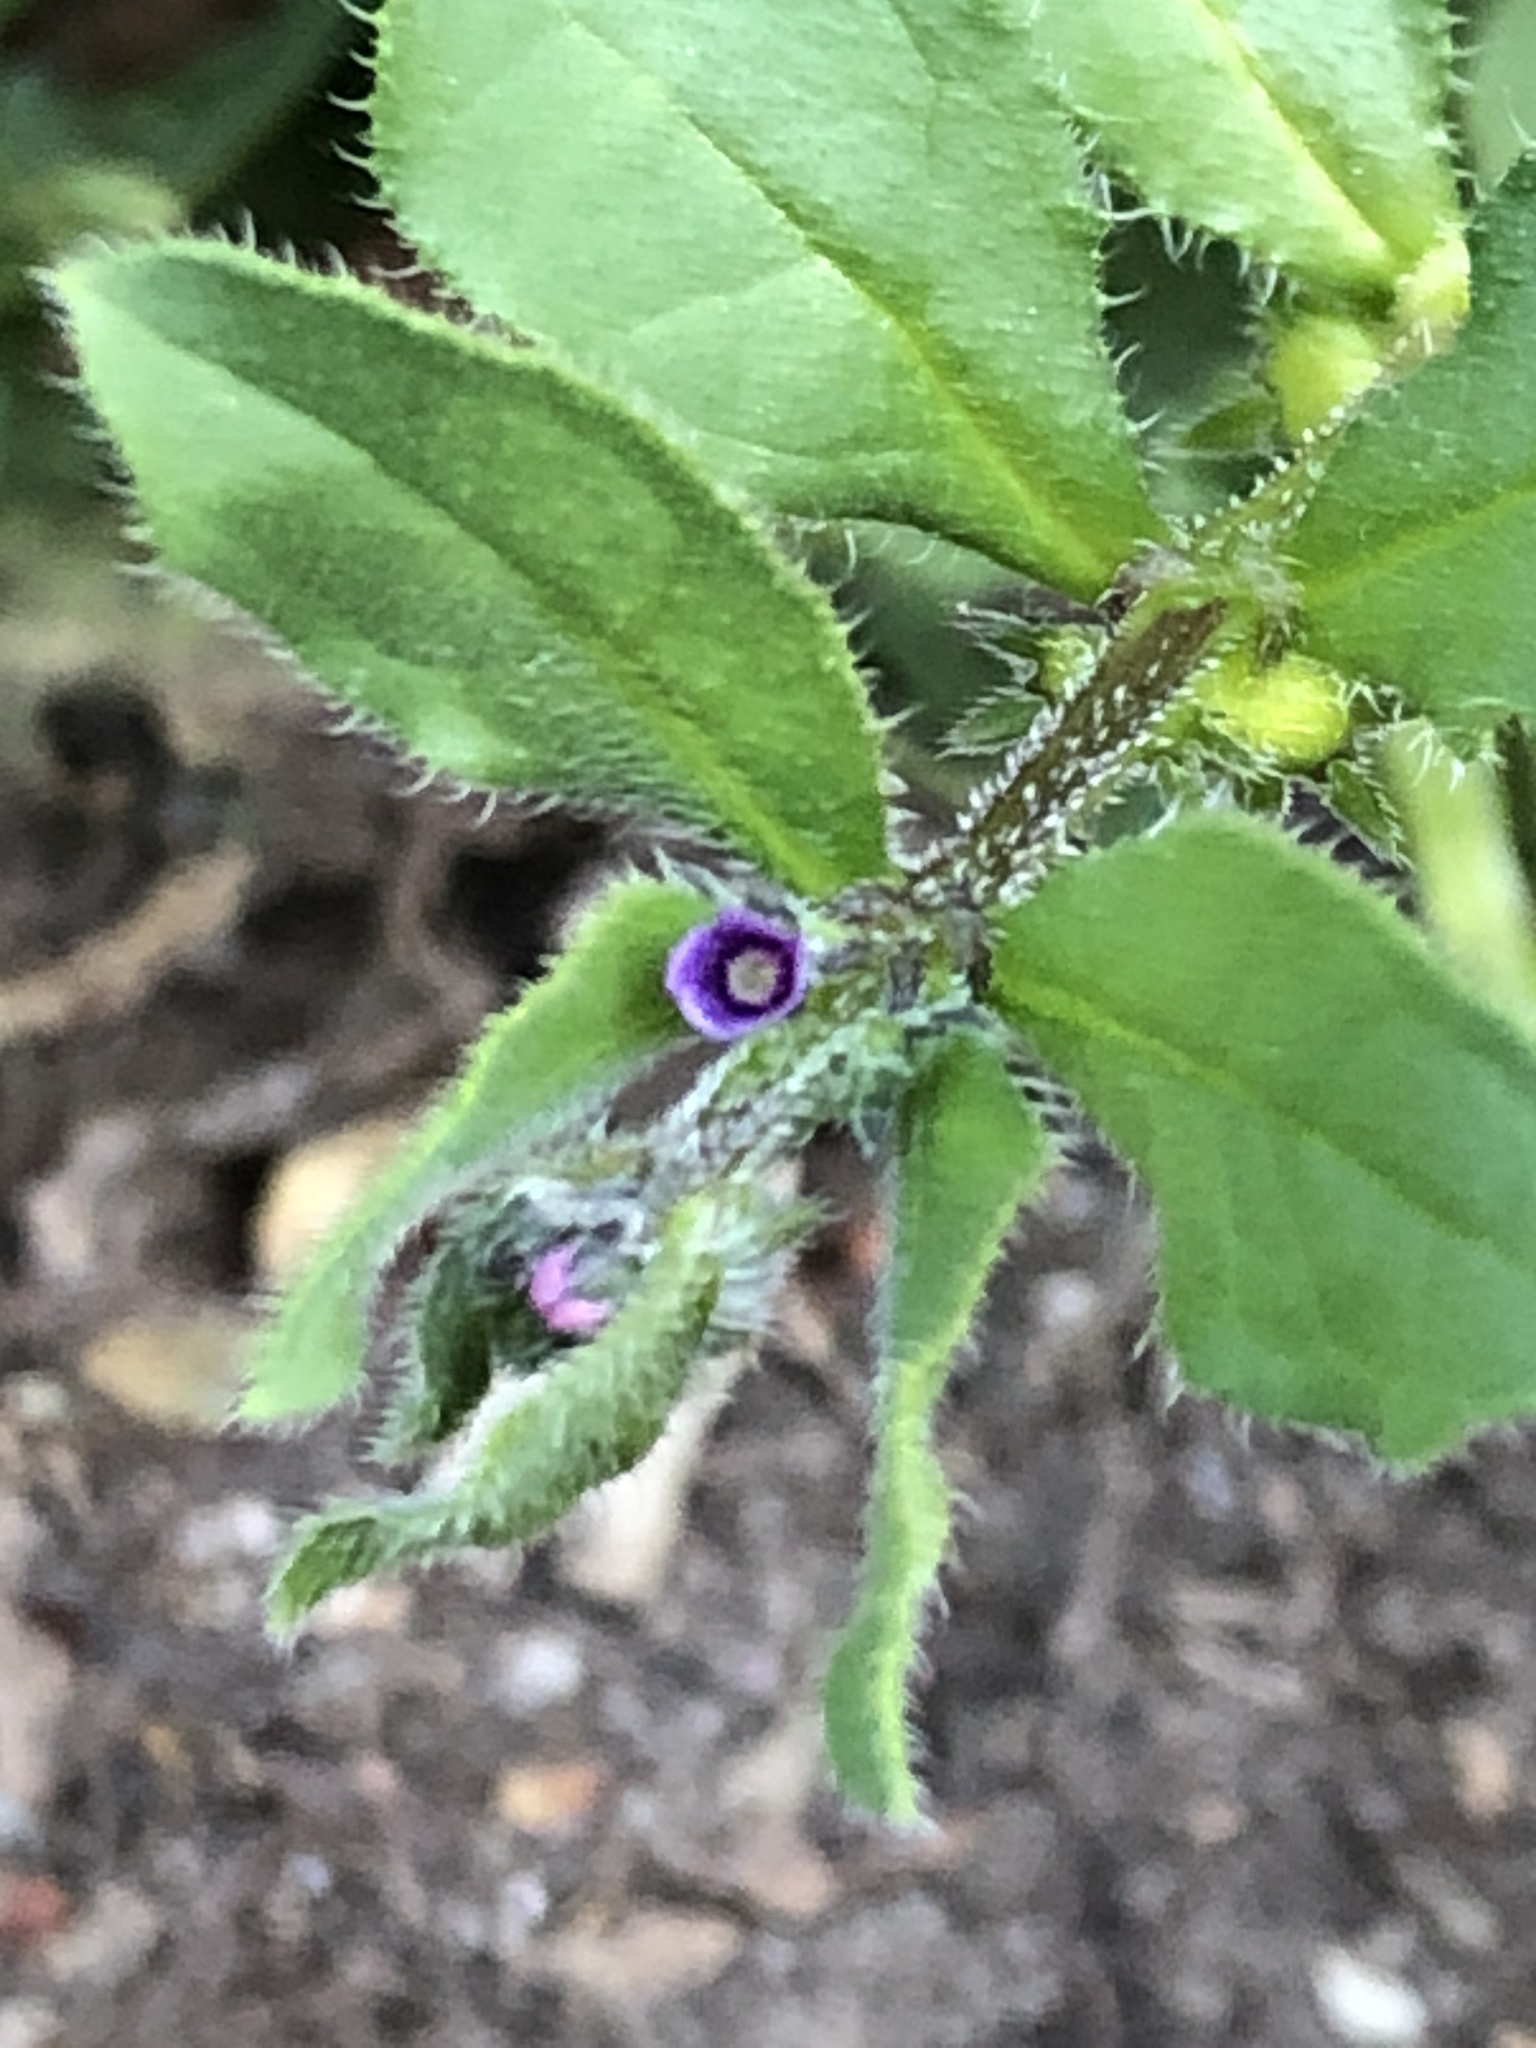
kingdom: Plantae
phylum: Tracheophyta
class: Magnoliopsida
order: Boraginales
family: Boraginaceae
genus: Asperugo
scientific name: Asperugo procumbens
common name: Madwort
